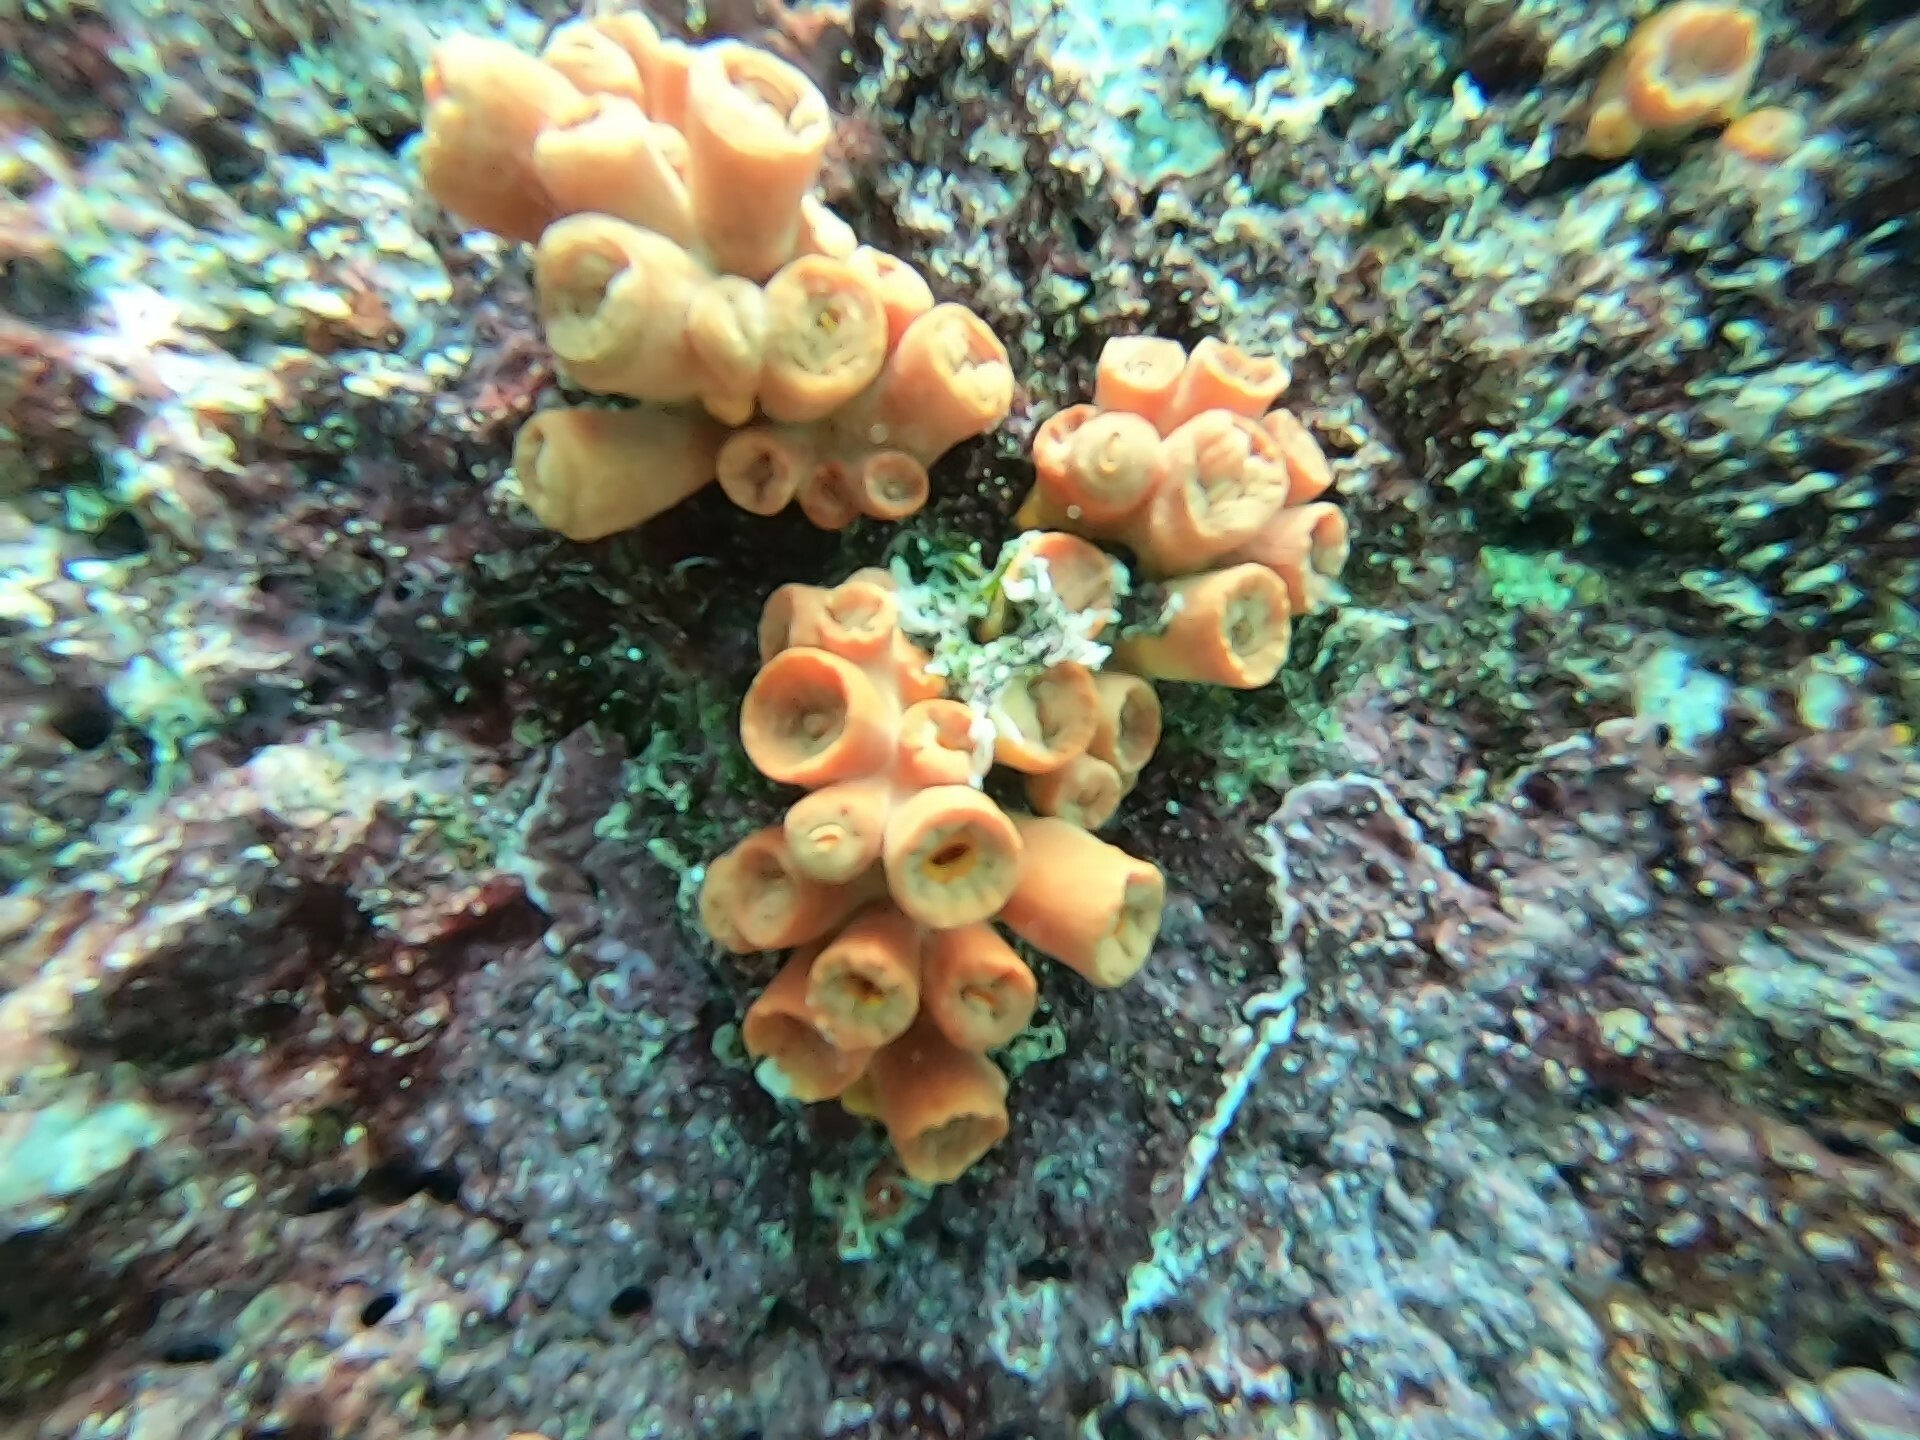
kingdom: Animalia
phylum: Cnidaria
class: Anthozoa
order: Scleractinia
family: Dendrophylliidae
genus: Tubastraea
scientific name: Tubastraea coccinea
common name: Orange cup coral
